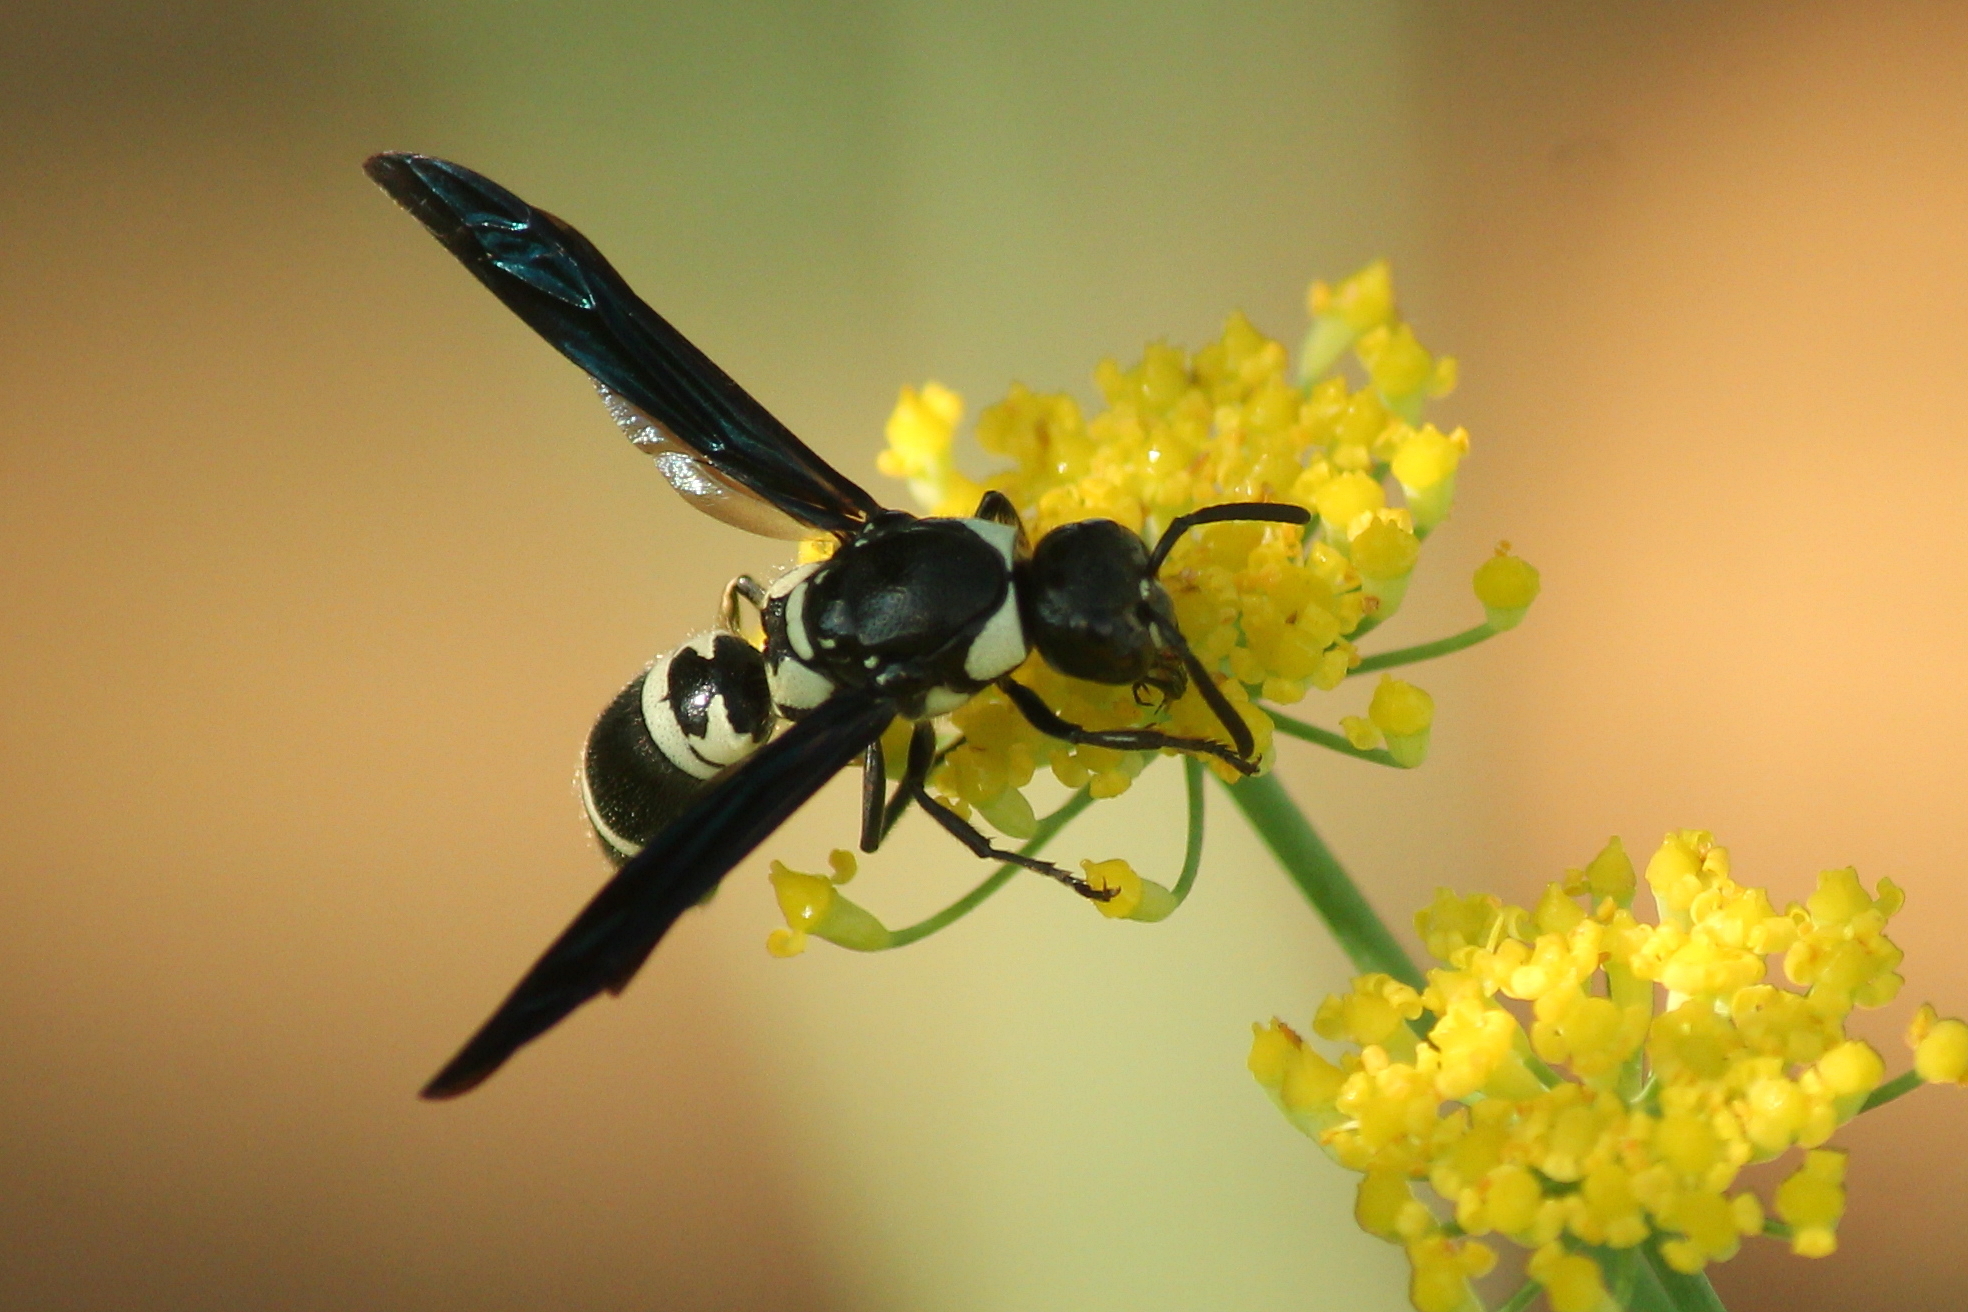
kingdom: Animalia
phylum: Arthropoda
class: Insecta
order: Hymenoptera
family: Eumenidae
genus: Pseudodynerus
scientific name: Pseudodynerus quadrisectus
